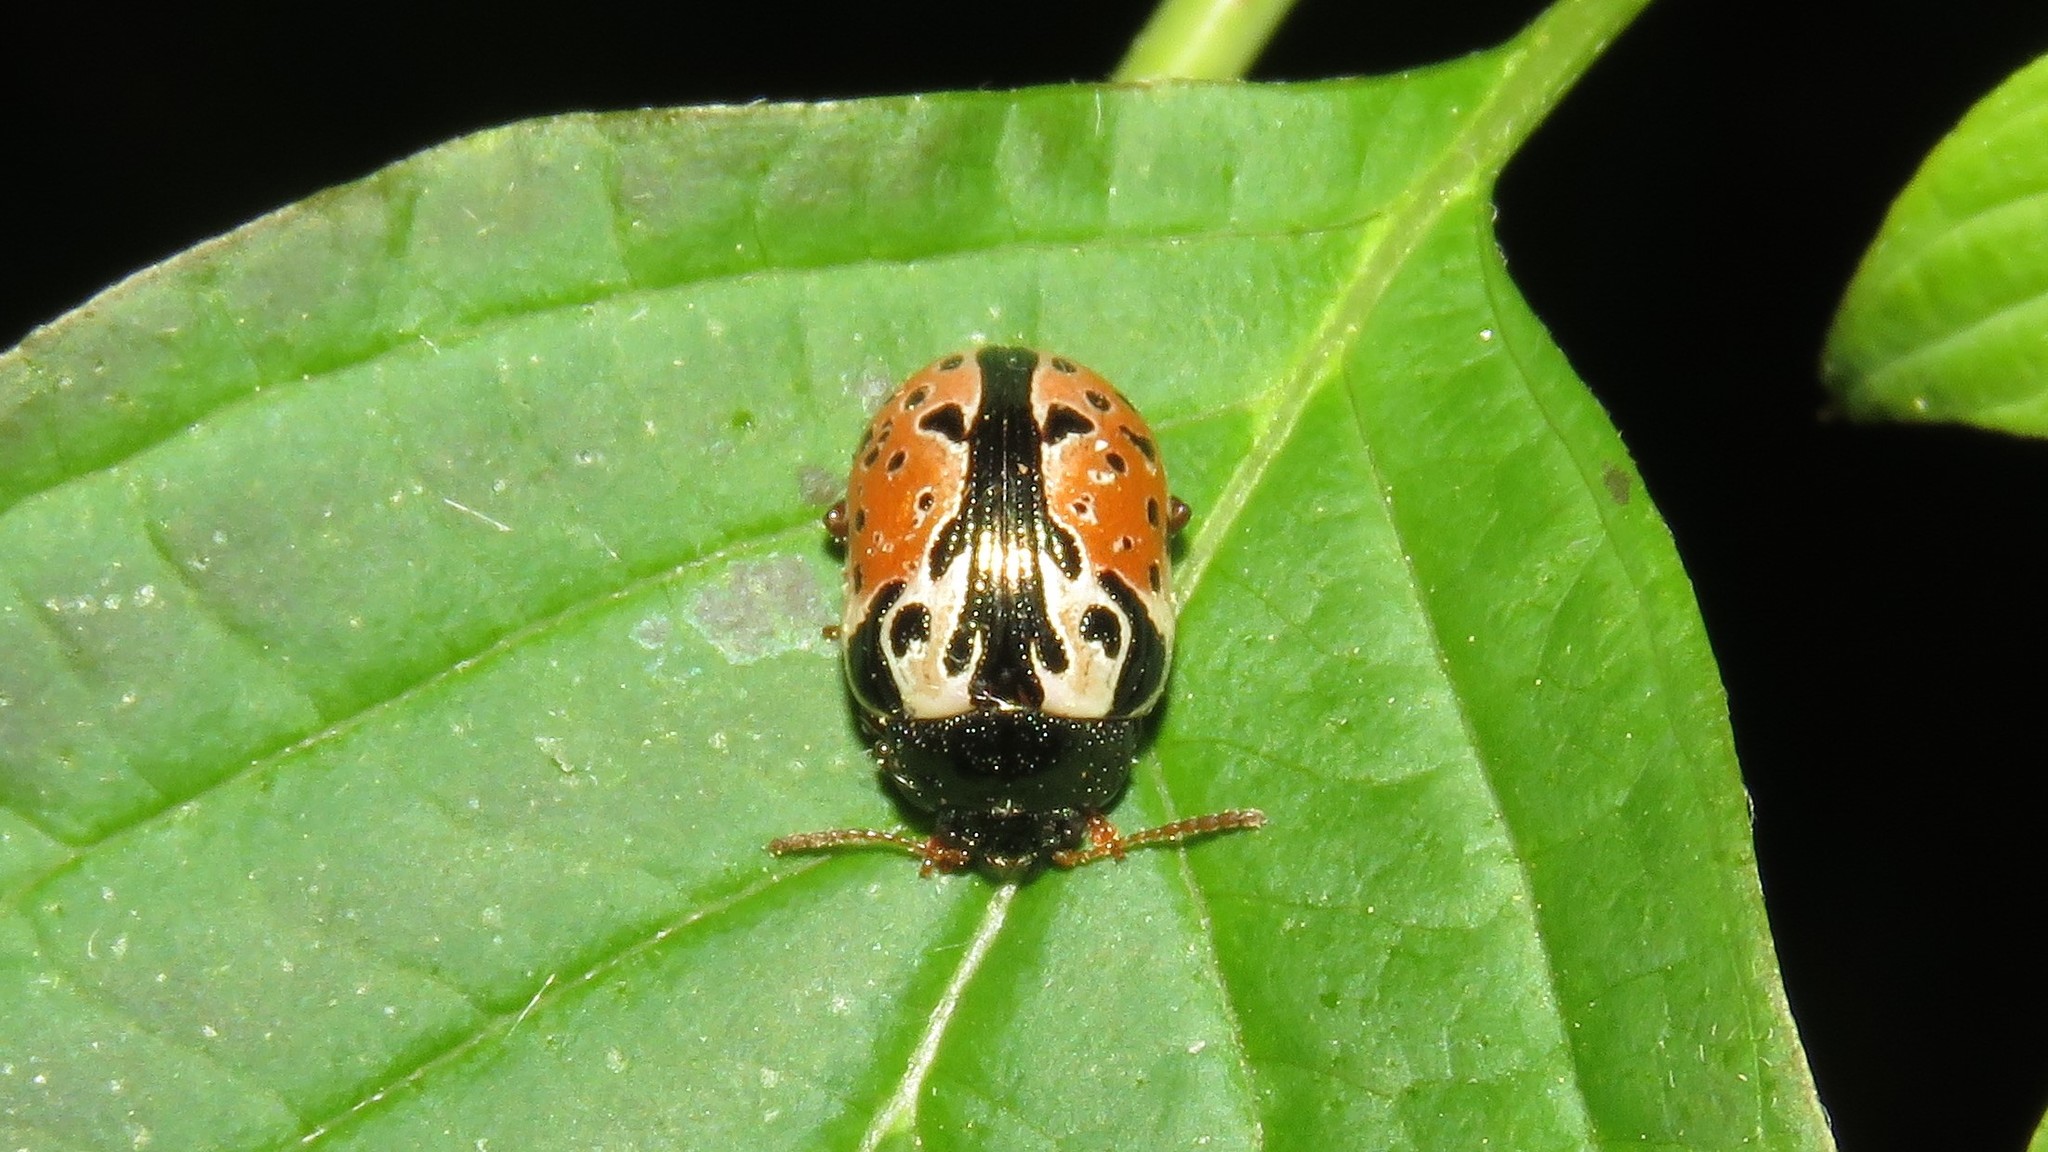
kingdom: Animalia
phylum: Arthropoda
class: Insecta
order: Coleoptera
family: Chrysomelidae
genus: Calligrapha
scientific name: Calligrapha rowena
